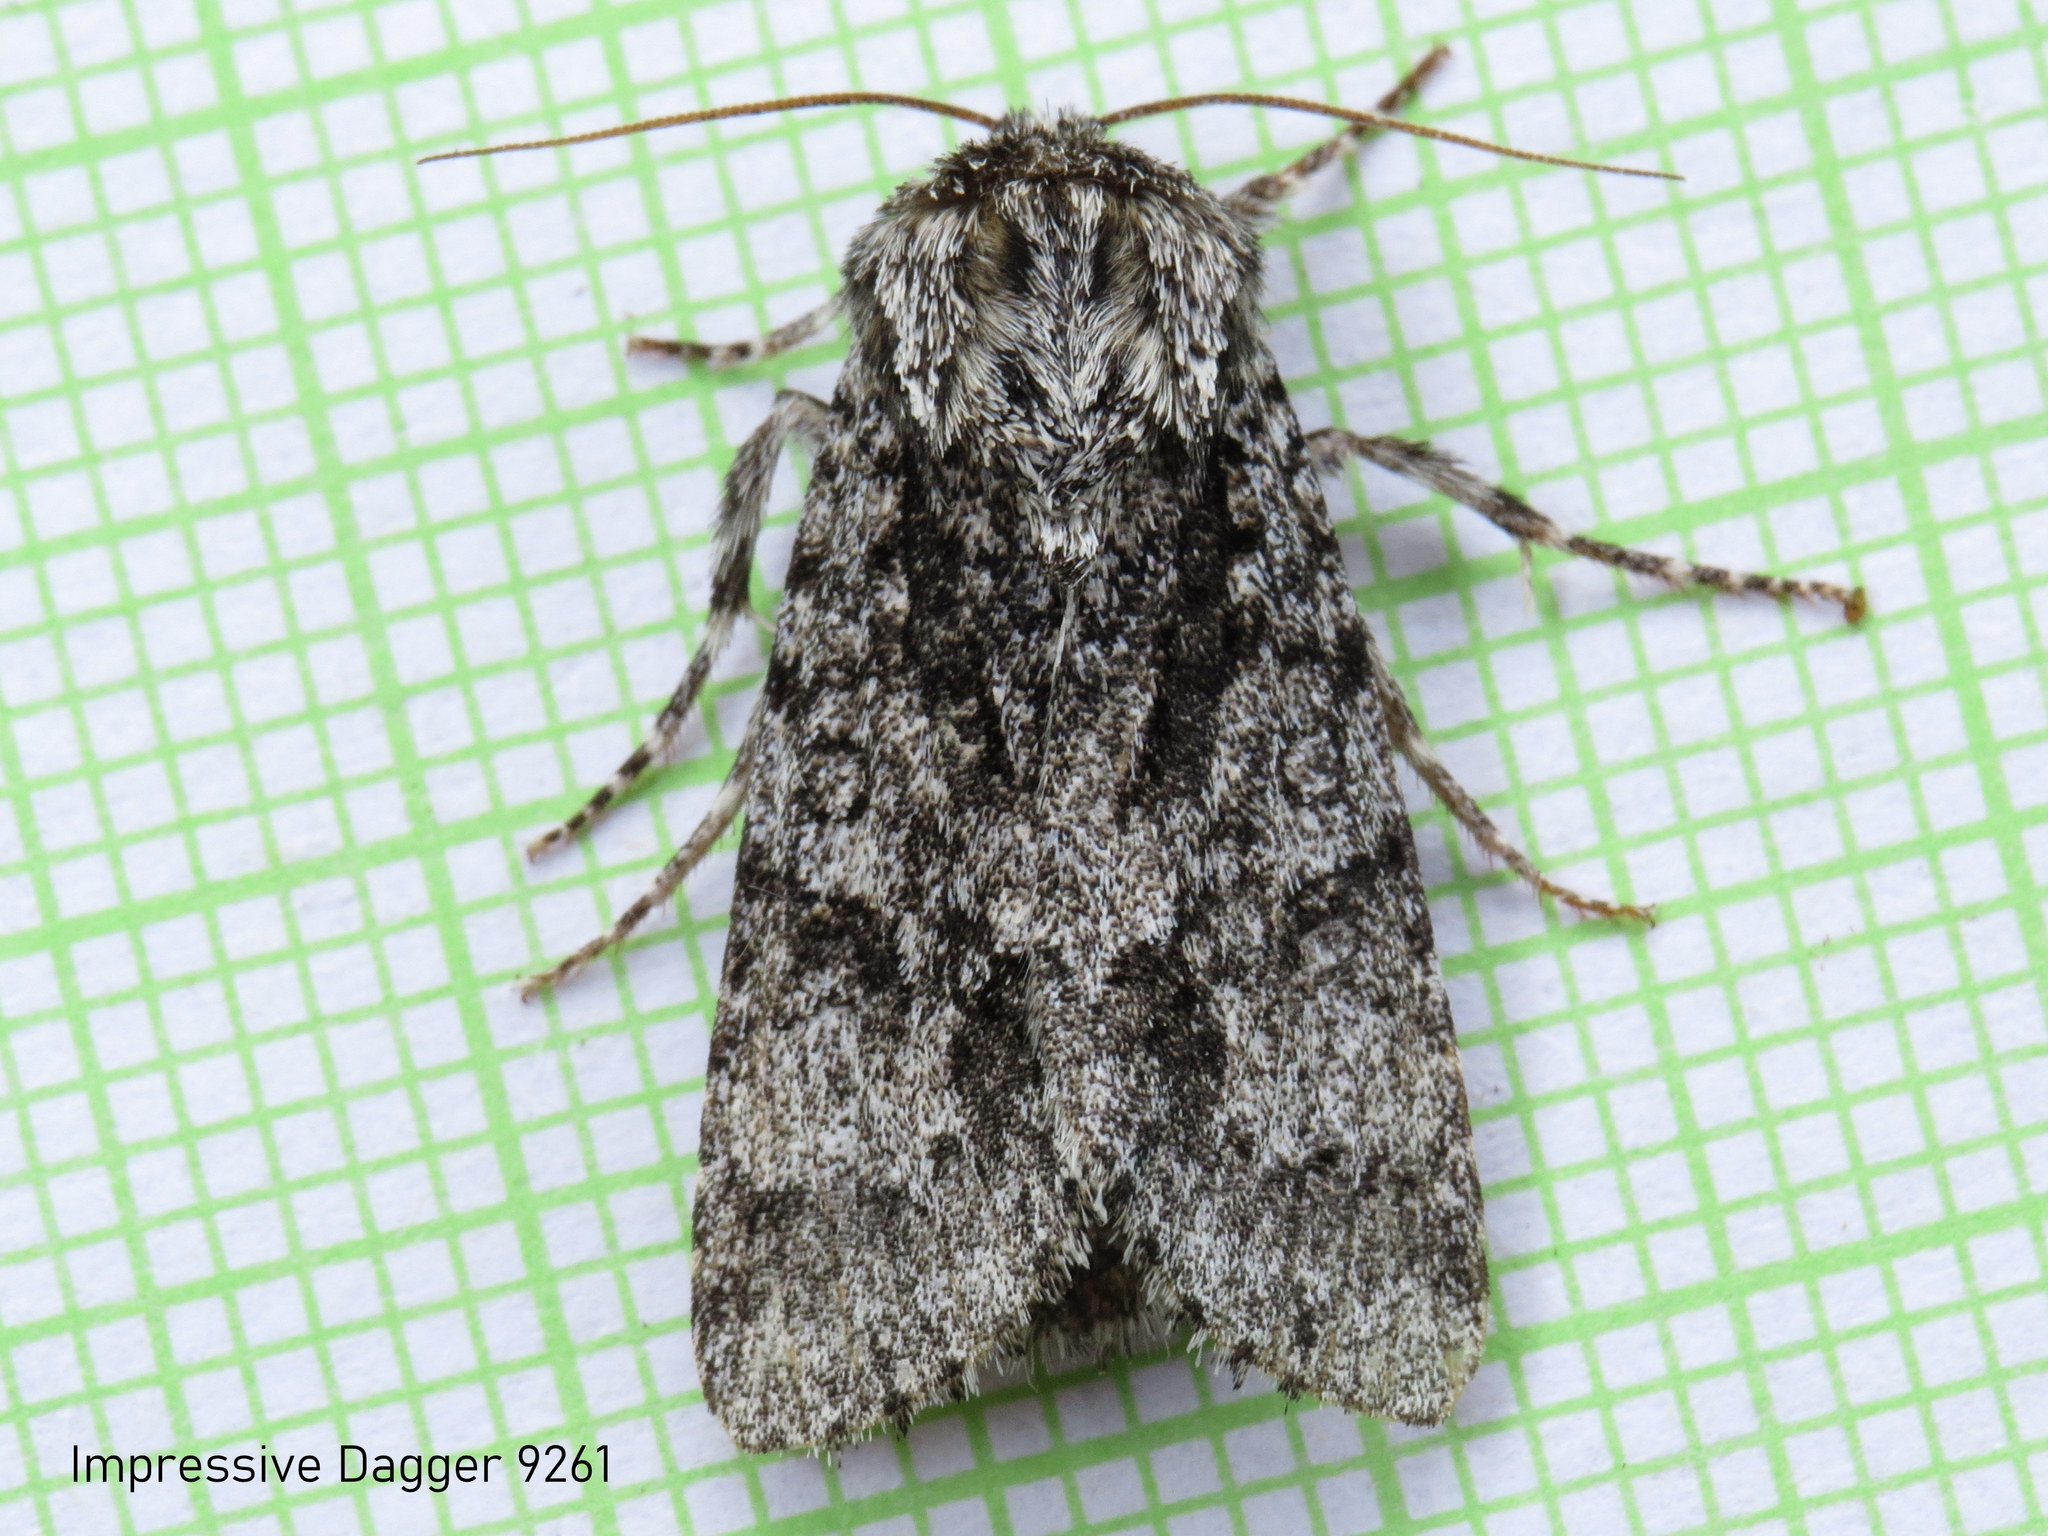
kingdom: Animalia
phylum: Arthropoda
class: Insecta
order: Lepidoptera
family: Noctuidae
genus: Acronicta
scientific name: Acronicta impressa
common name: Impressed dagger
